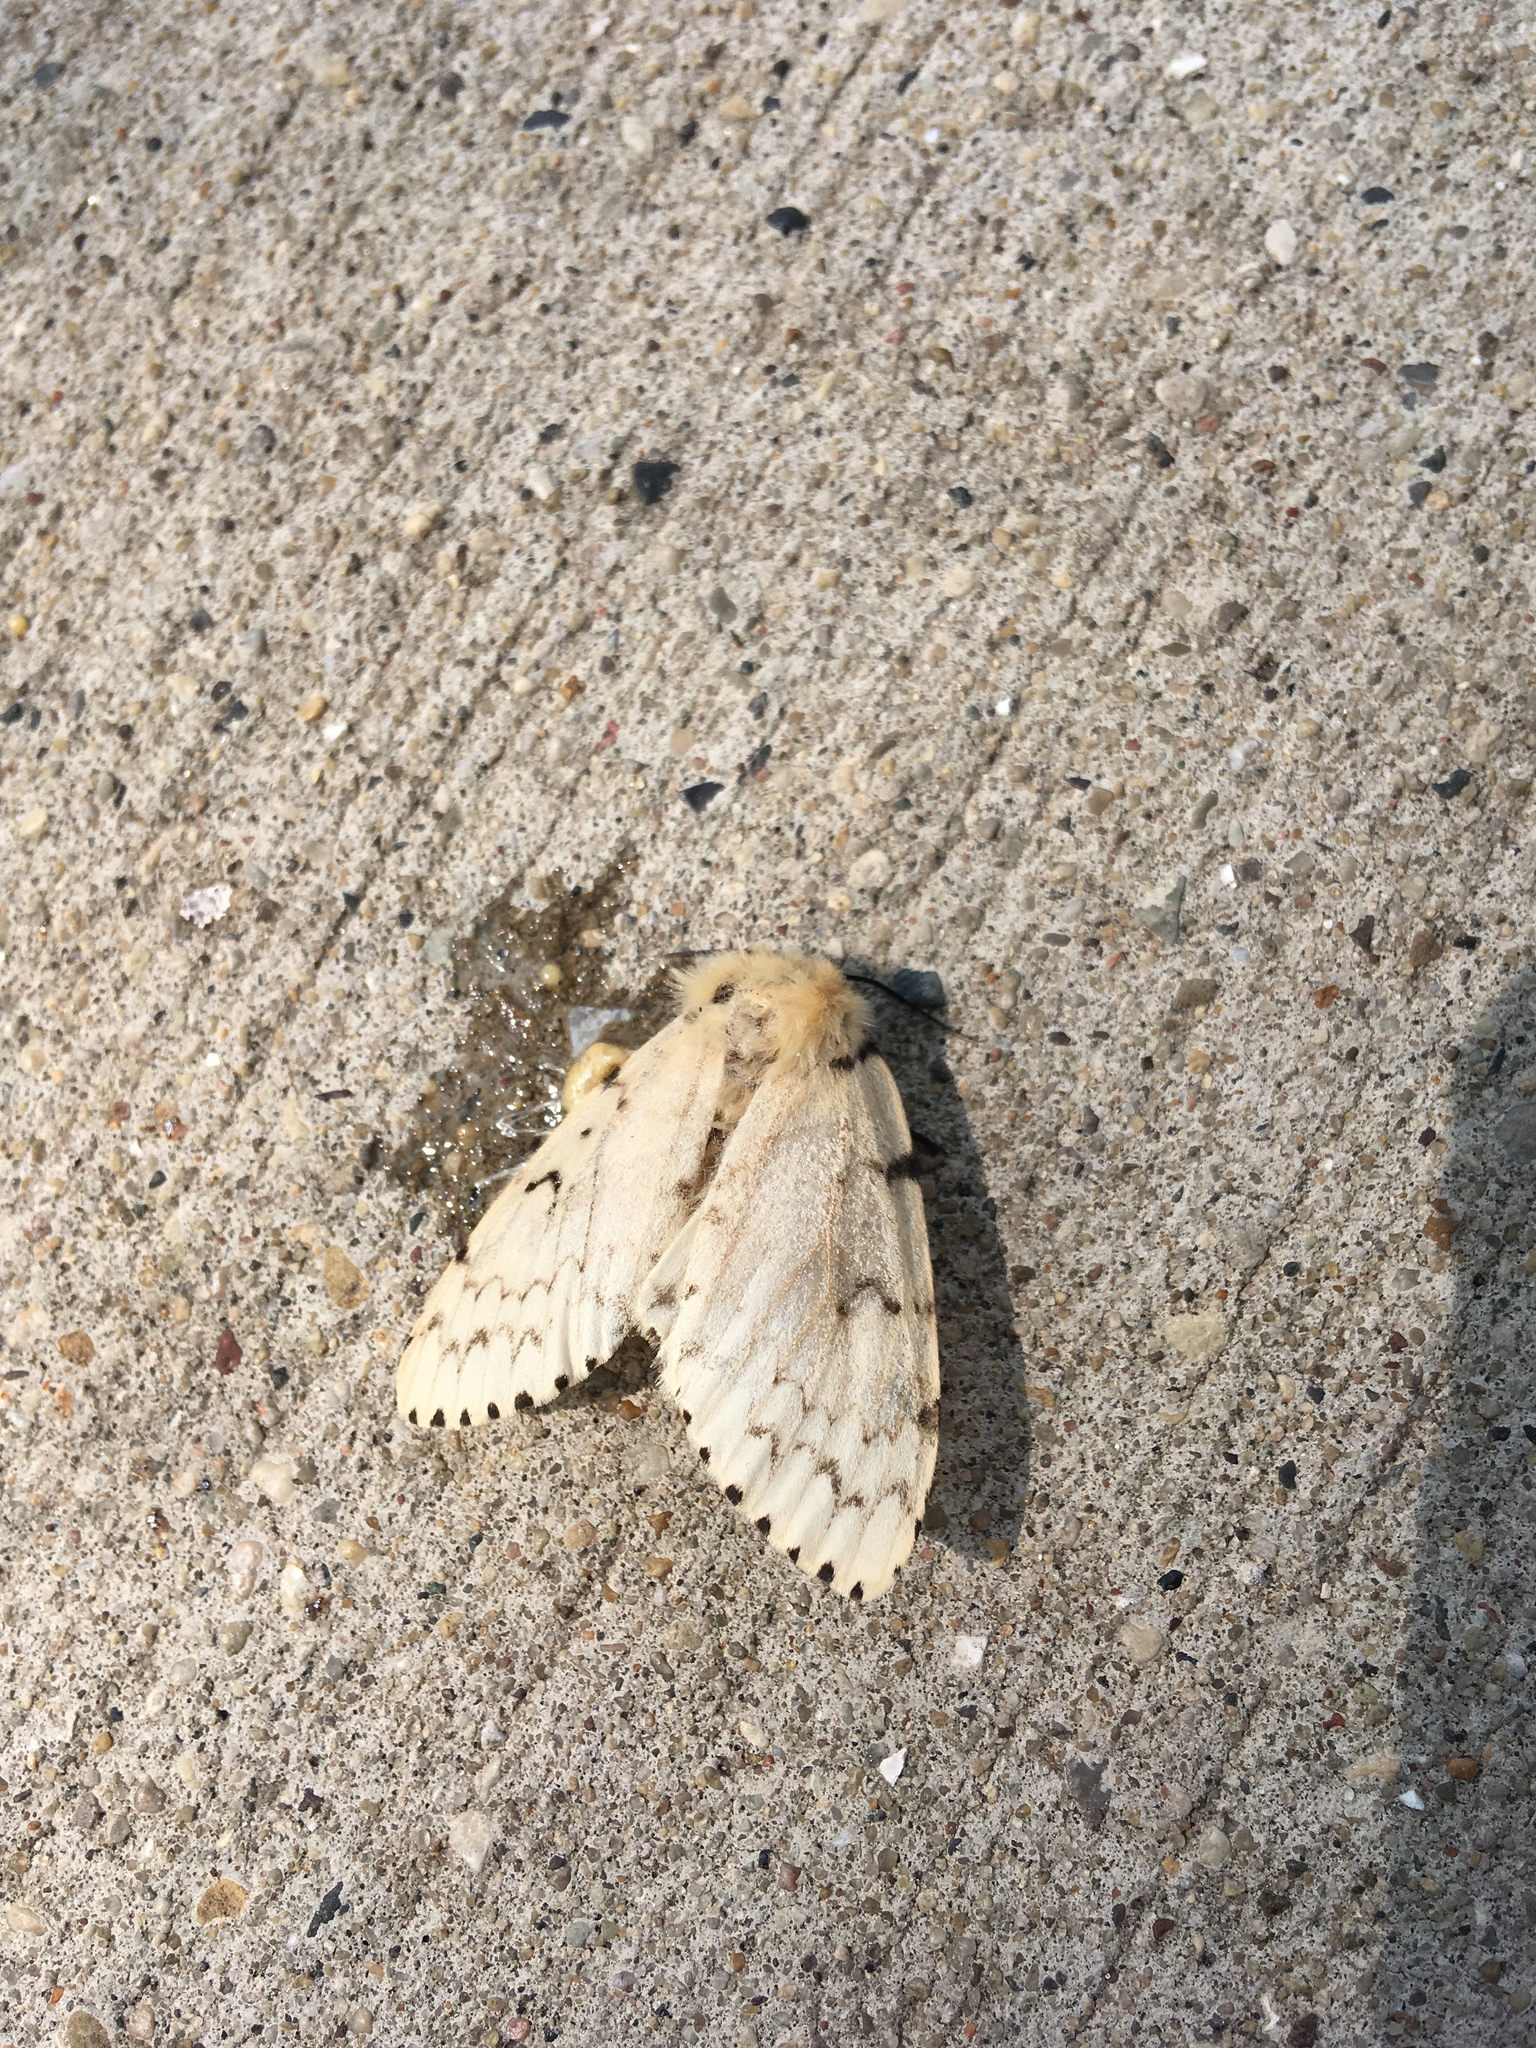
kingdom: Animalia
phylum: Arthropoda
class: Insecta
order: Lepidoptera
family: Erebidae
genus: Lymantria
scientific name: Lymantria dispar
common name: Gypsy moth
